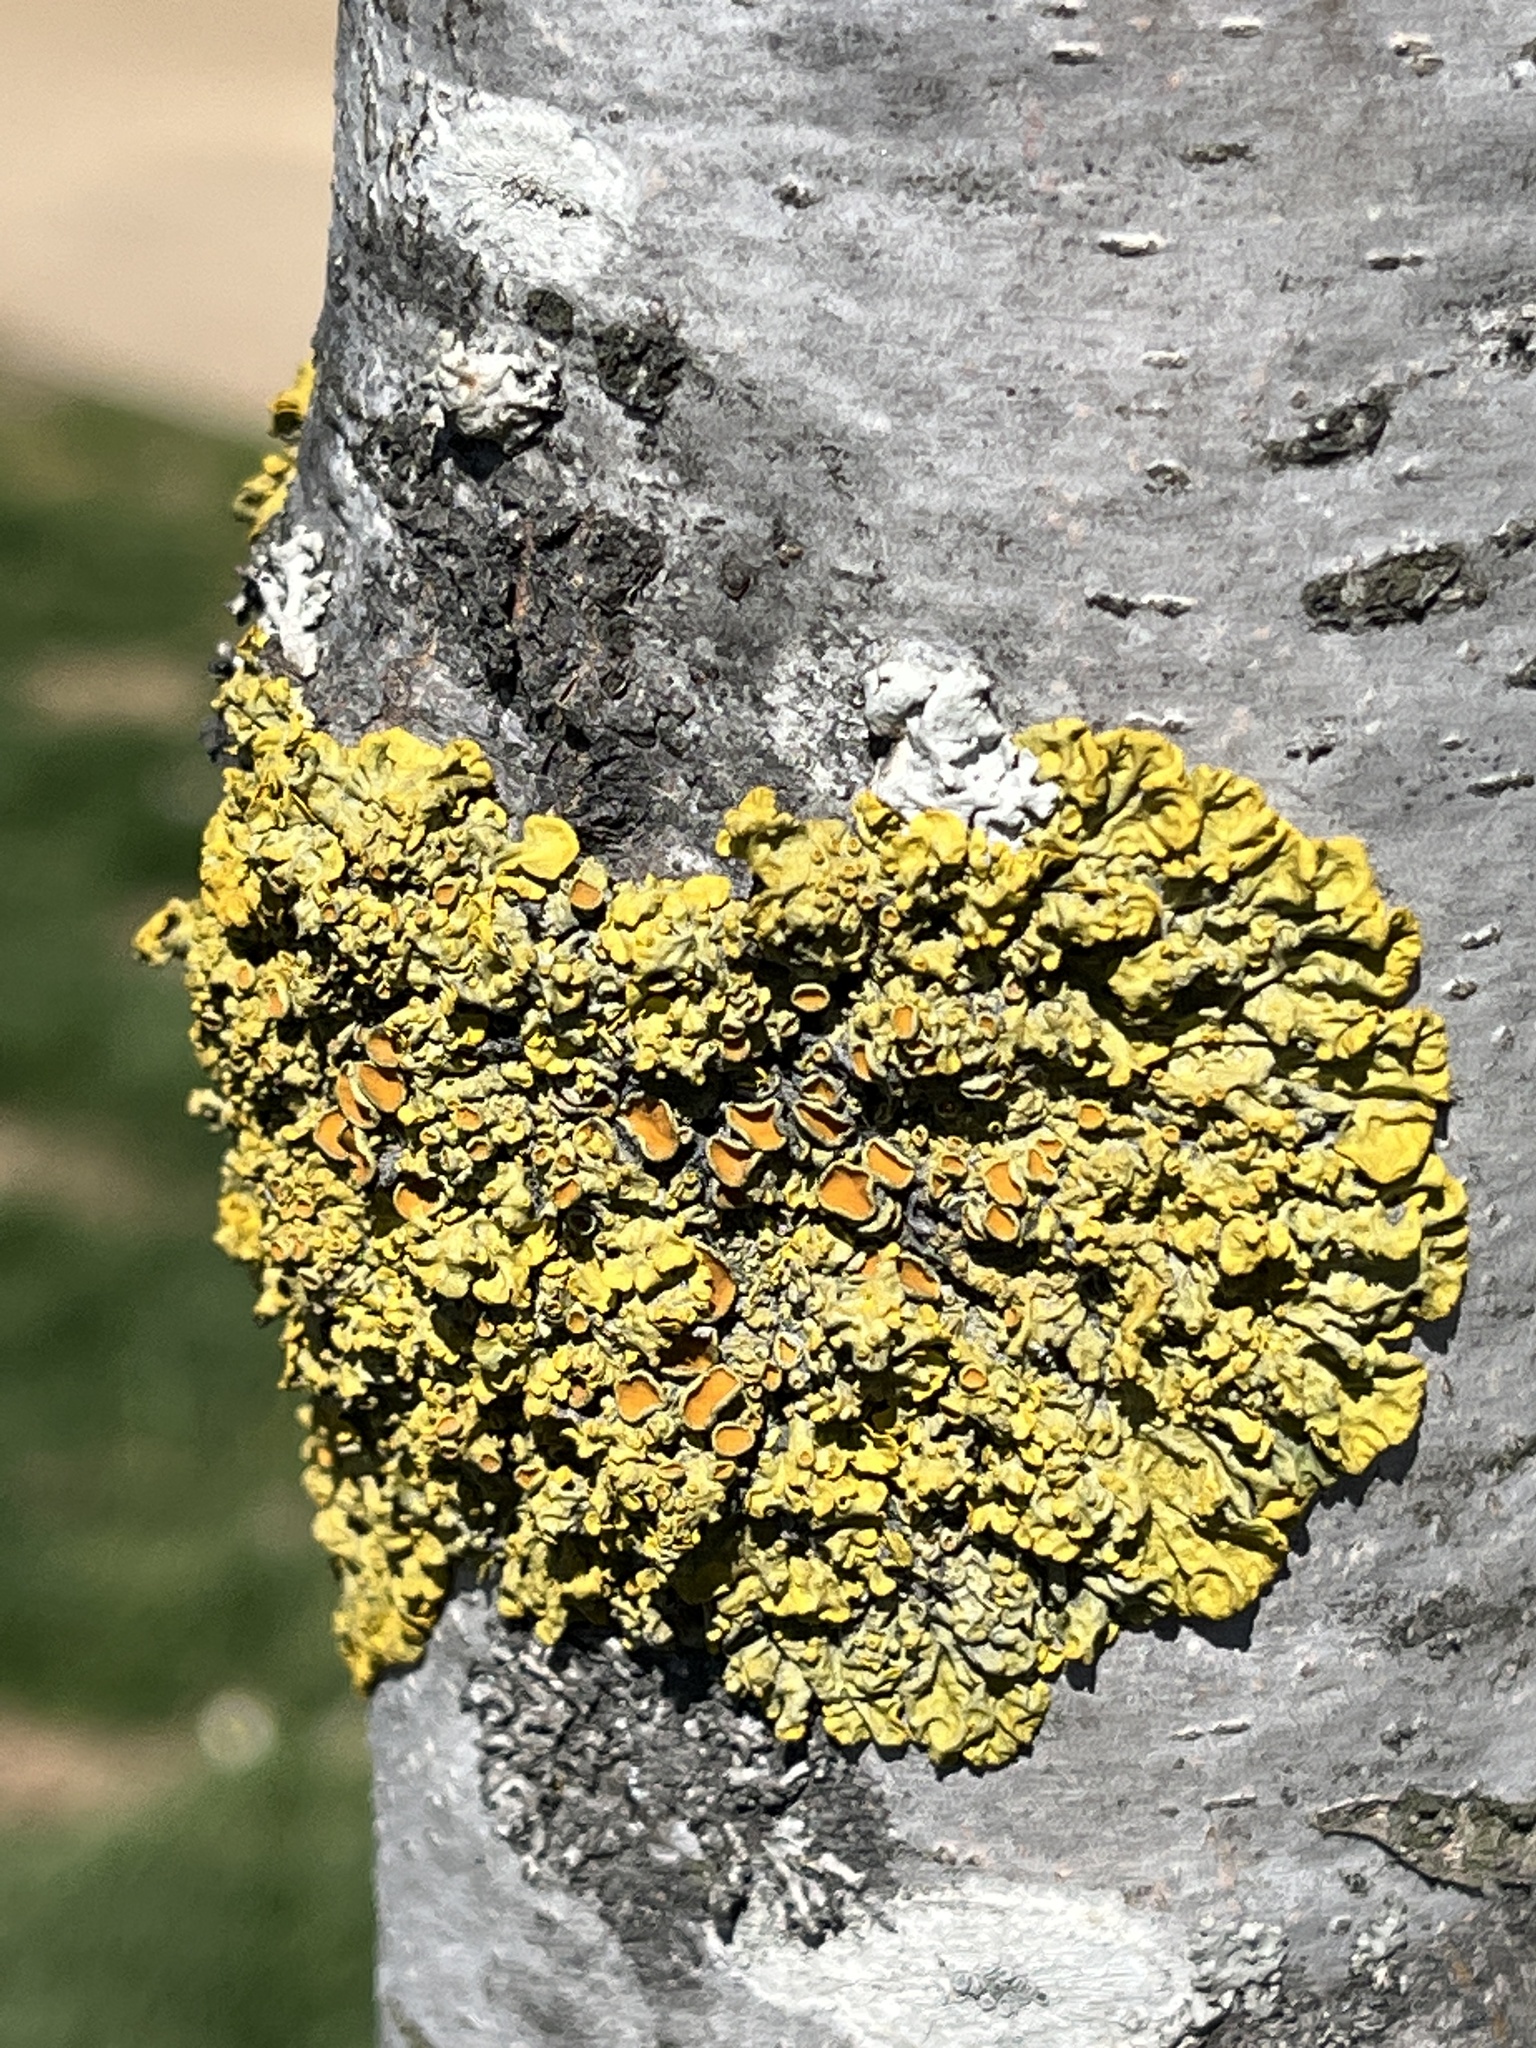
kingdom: Fungi
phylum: Ascomycota
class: Lecanoromycetes
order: Teloschistales
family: Teloschistaceae
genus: Xanthoria
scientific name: Xanthoria parietina
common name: Common orange lichen
